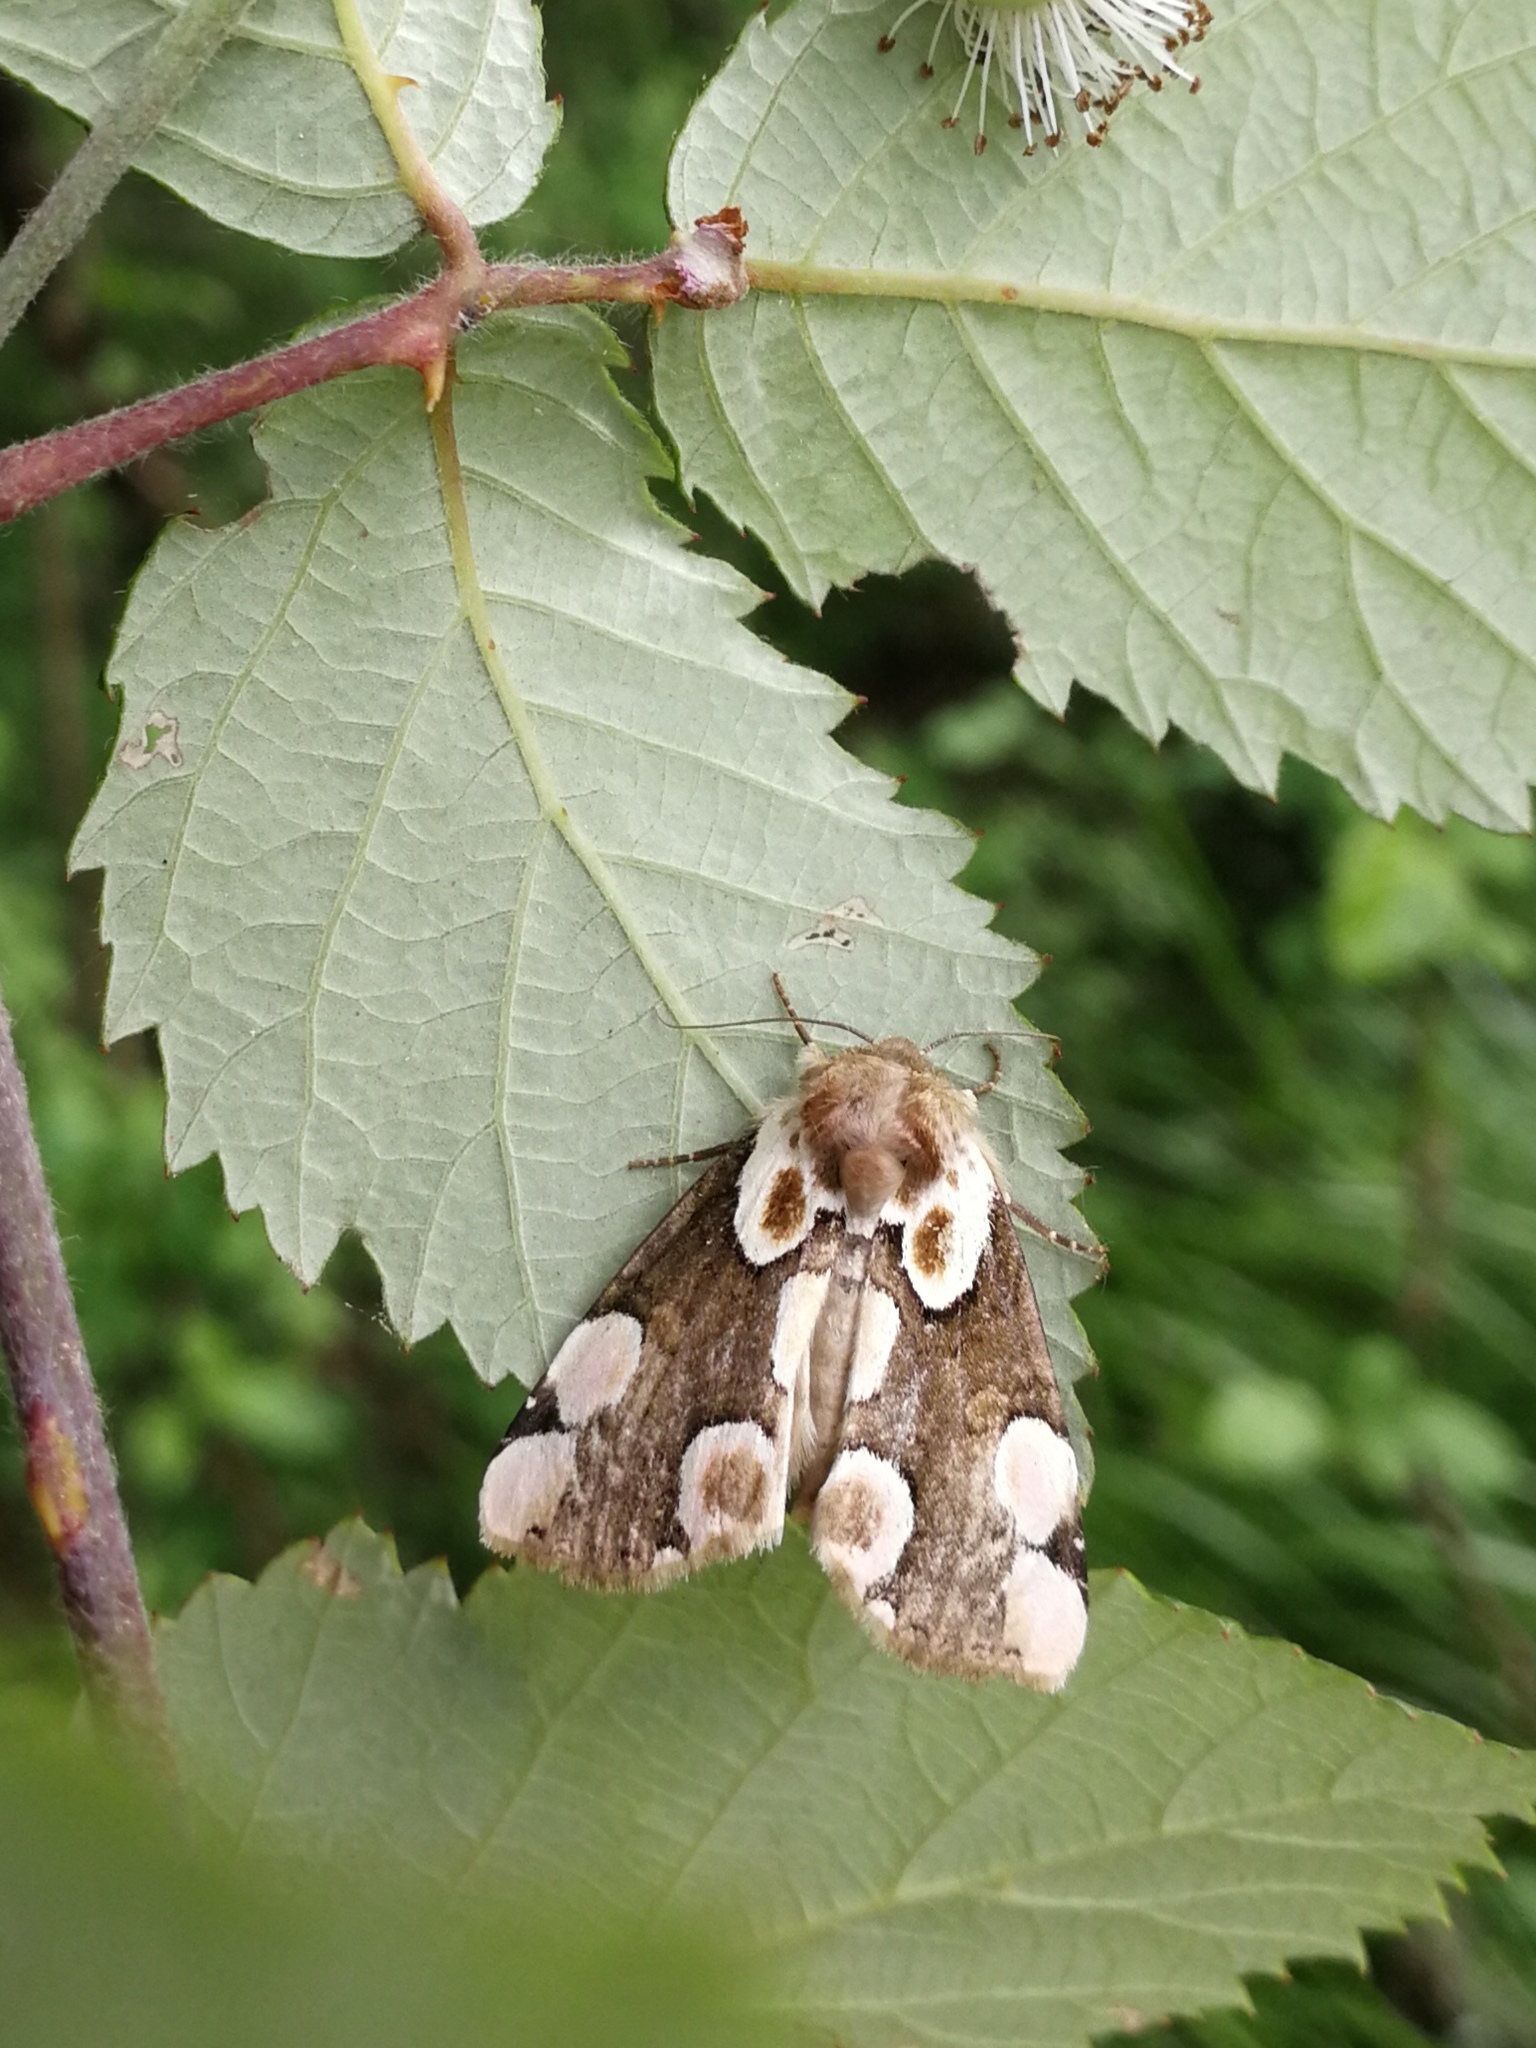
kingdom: Animalia
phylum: Arthropoda
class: Insecta
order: Lepidoptera
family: Drepanidae
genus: Thyatira
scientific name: Thyatira batis
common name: Peach blossom
